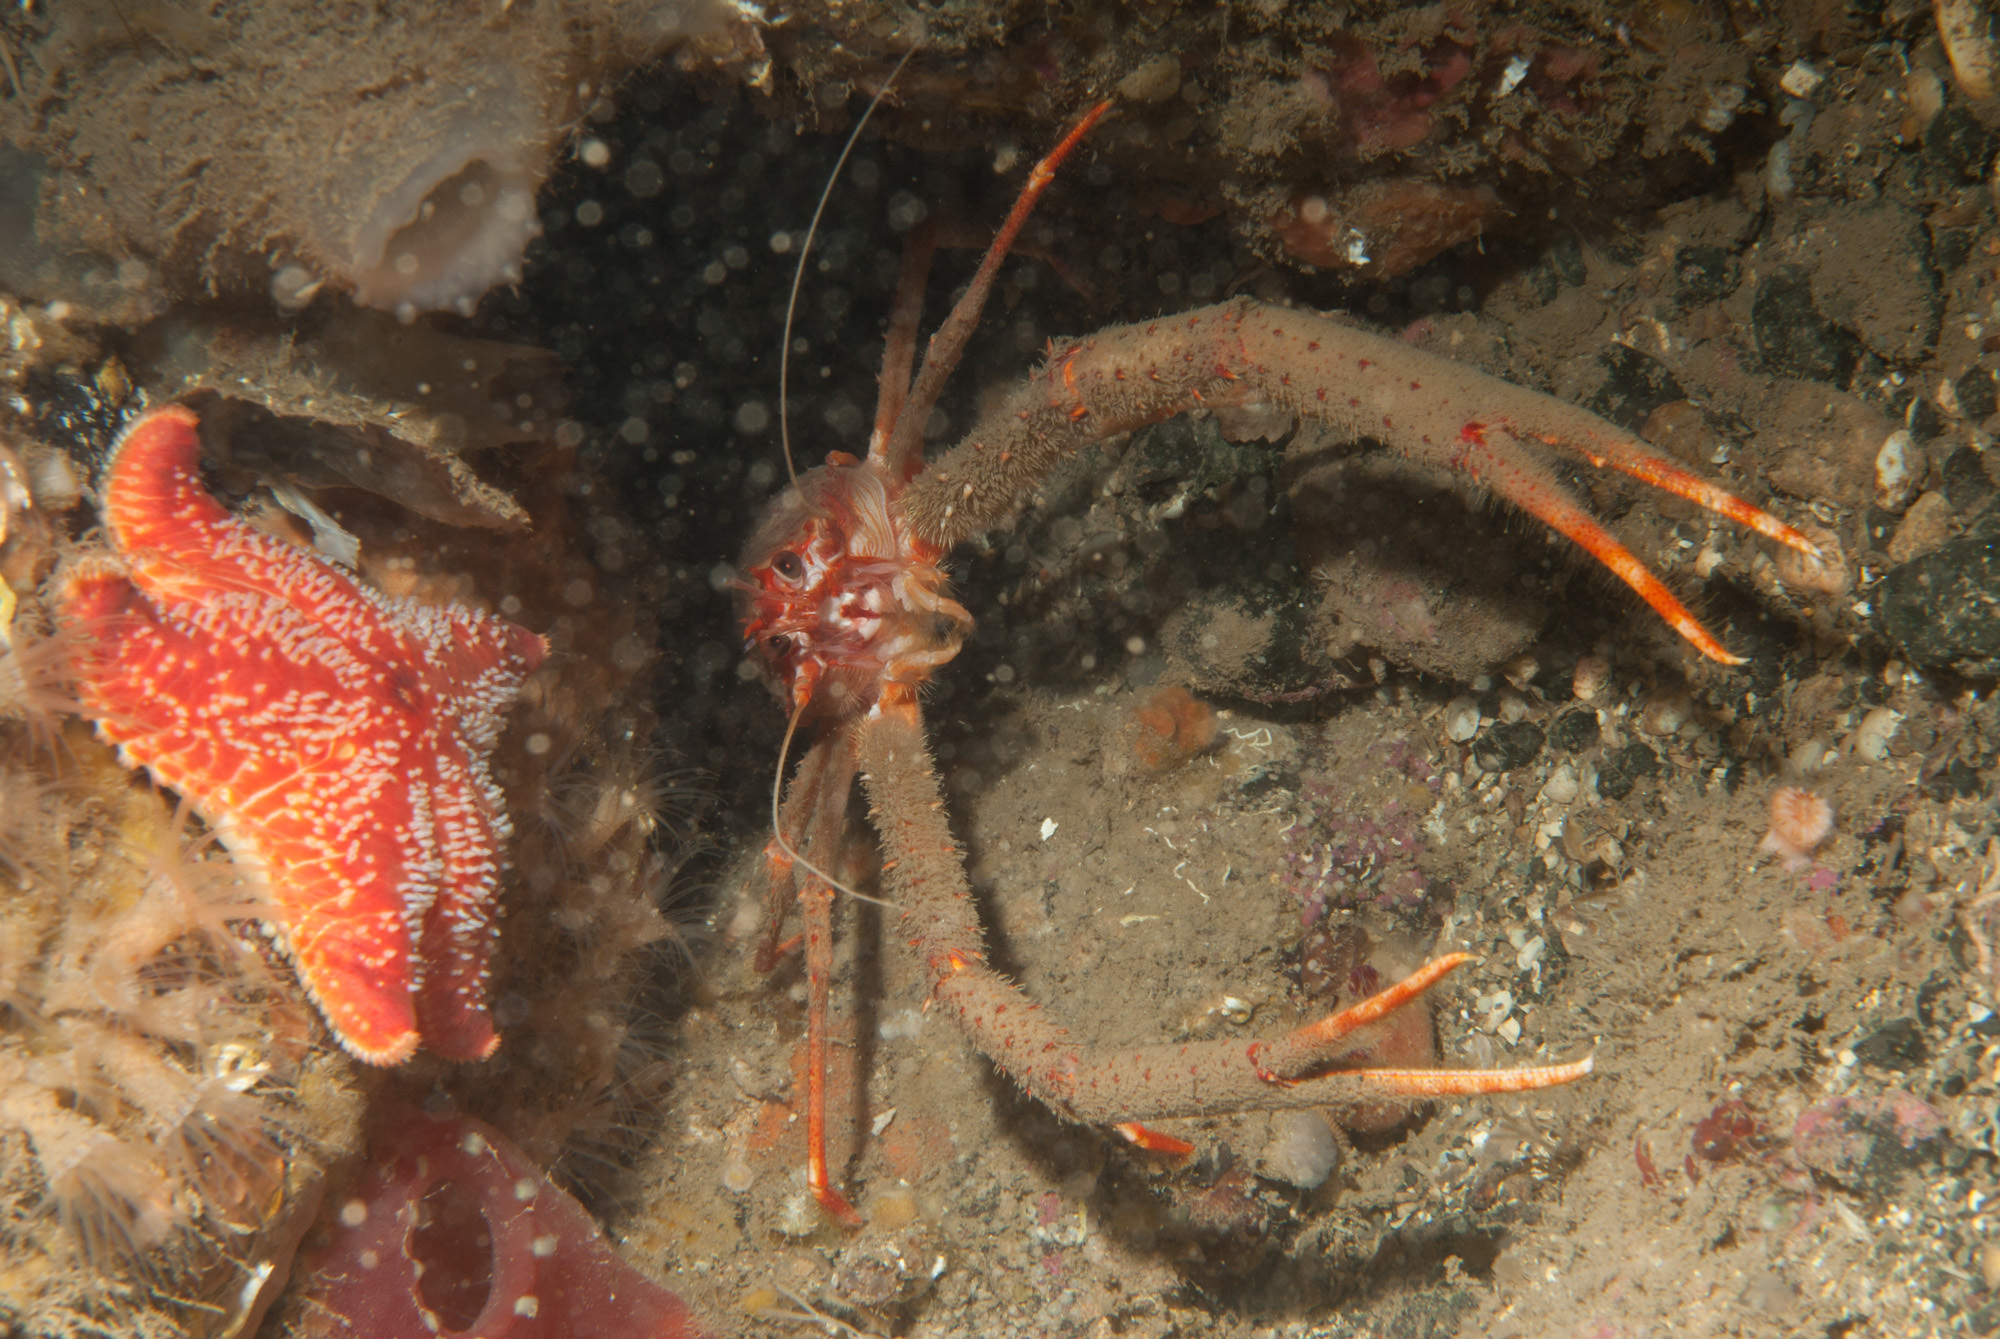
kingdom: Animalia
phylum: Arthropoda
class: Malacostraca
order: Decapoda
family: Munididae
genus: Munida
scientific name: Munida rugosa
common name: Rugose squat lobster
